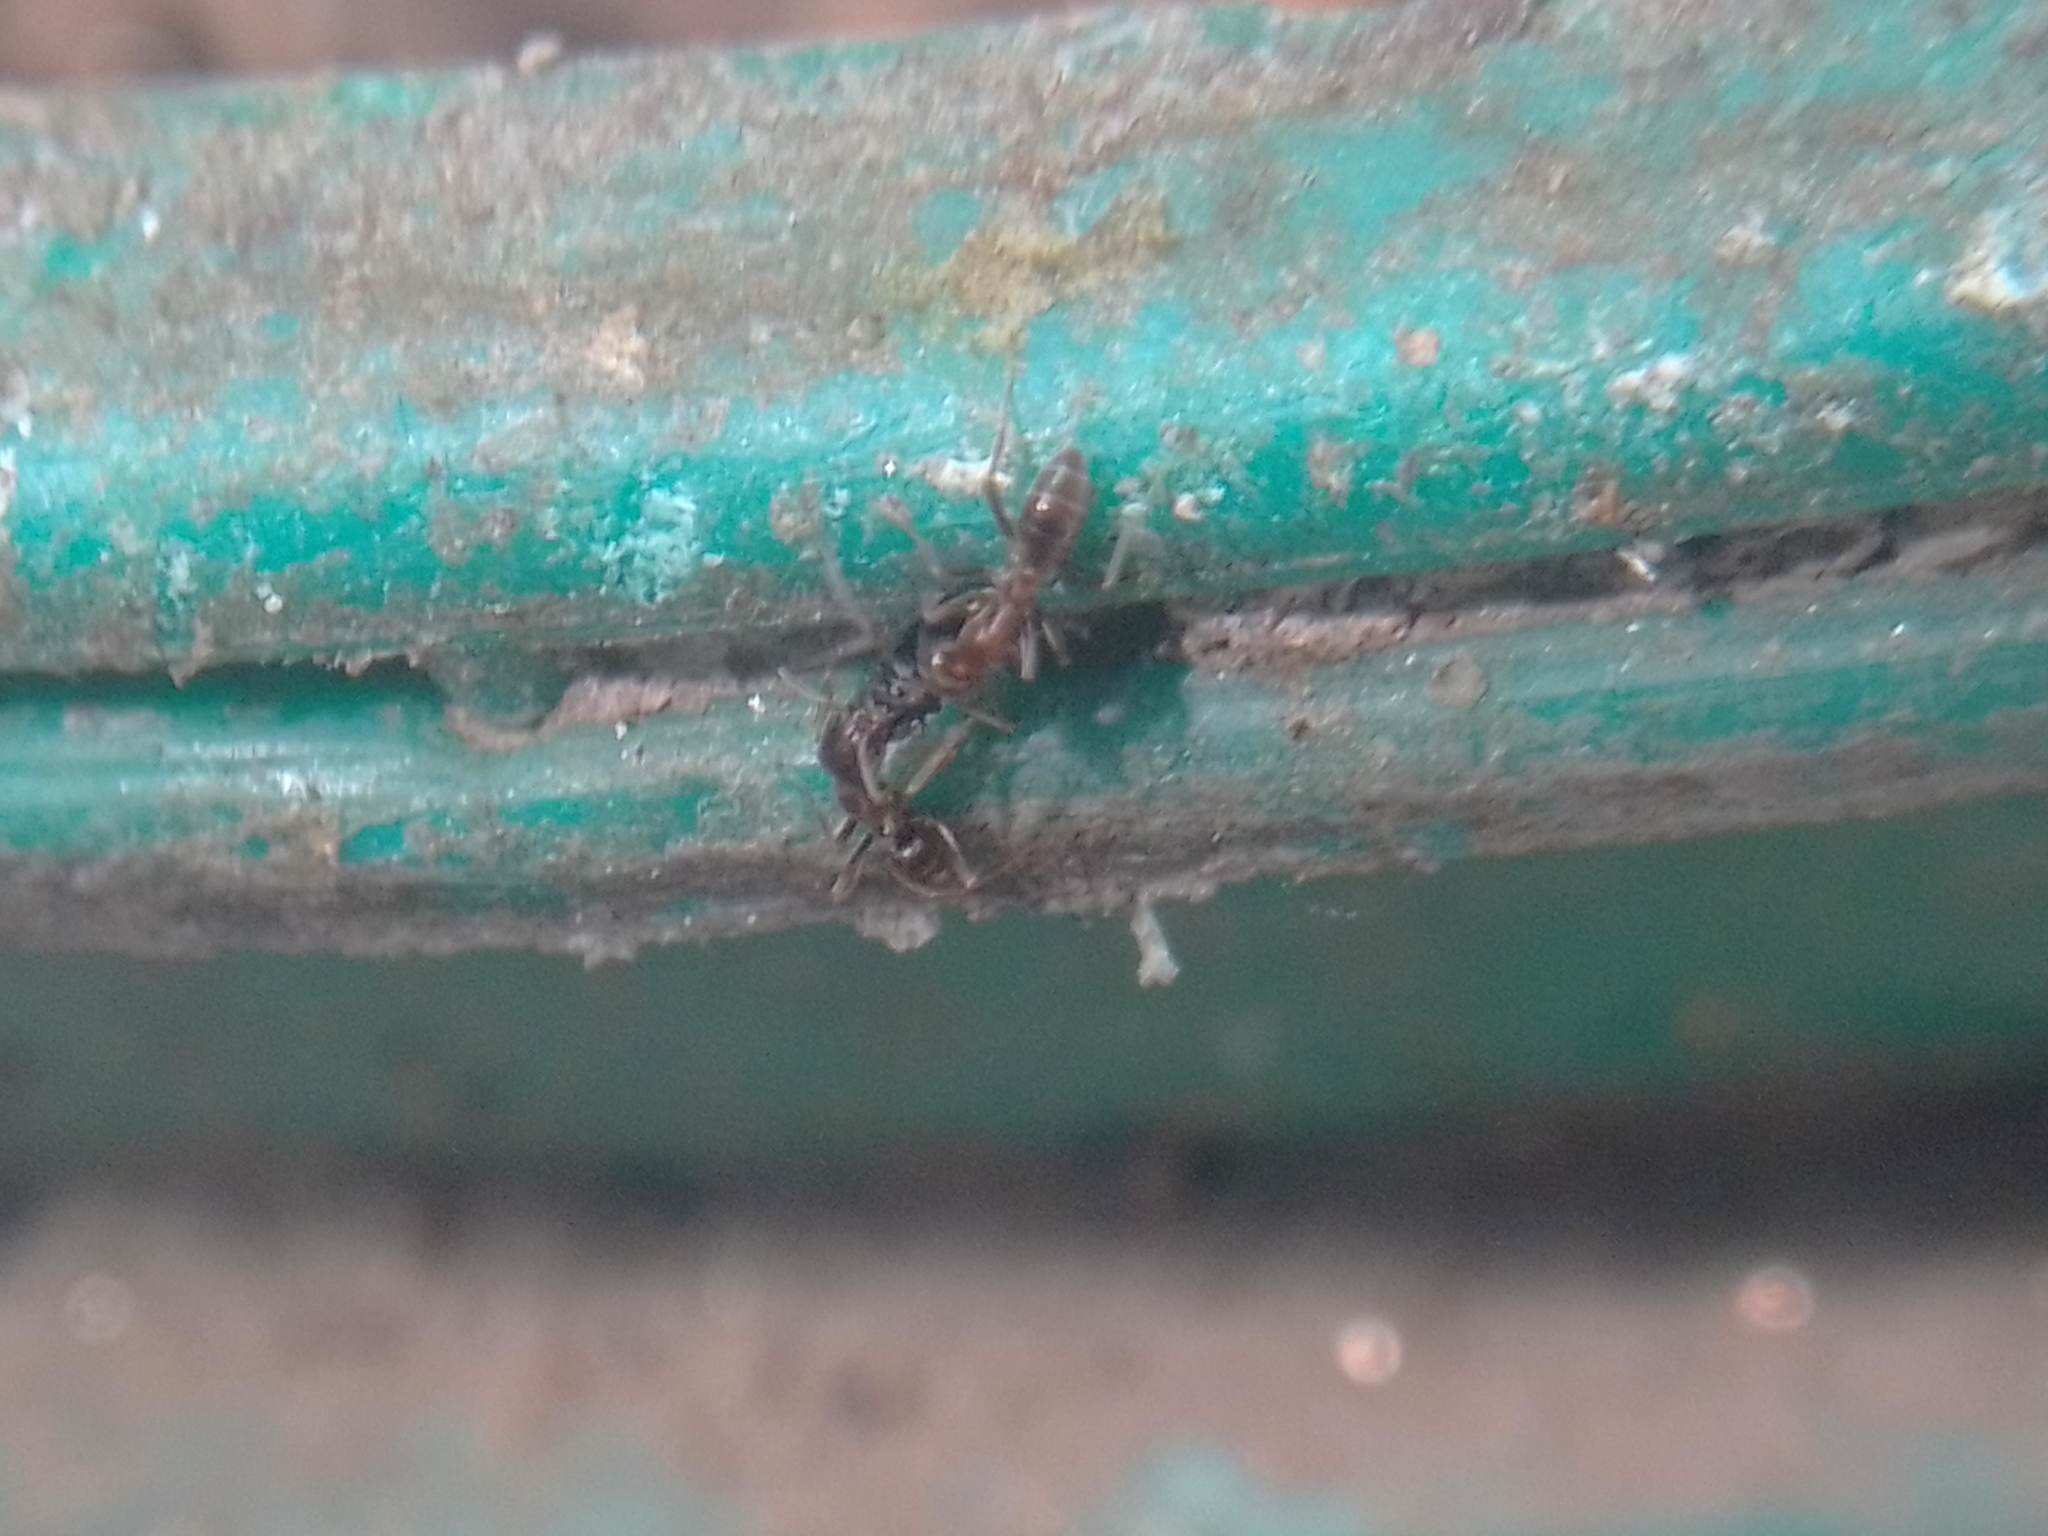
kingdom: Animalia
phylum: Arthropoda
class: Insecta
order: Hymenoptera
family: Formicidae
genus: Linepithema
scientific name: Linepithema humile
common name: Argentine ant
